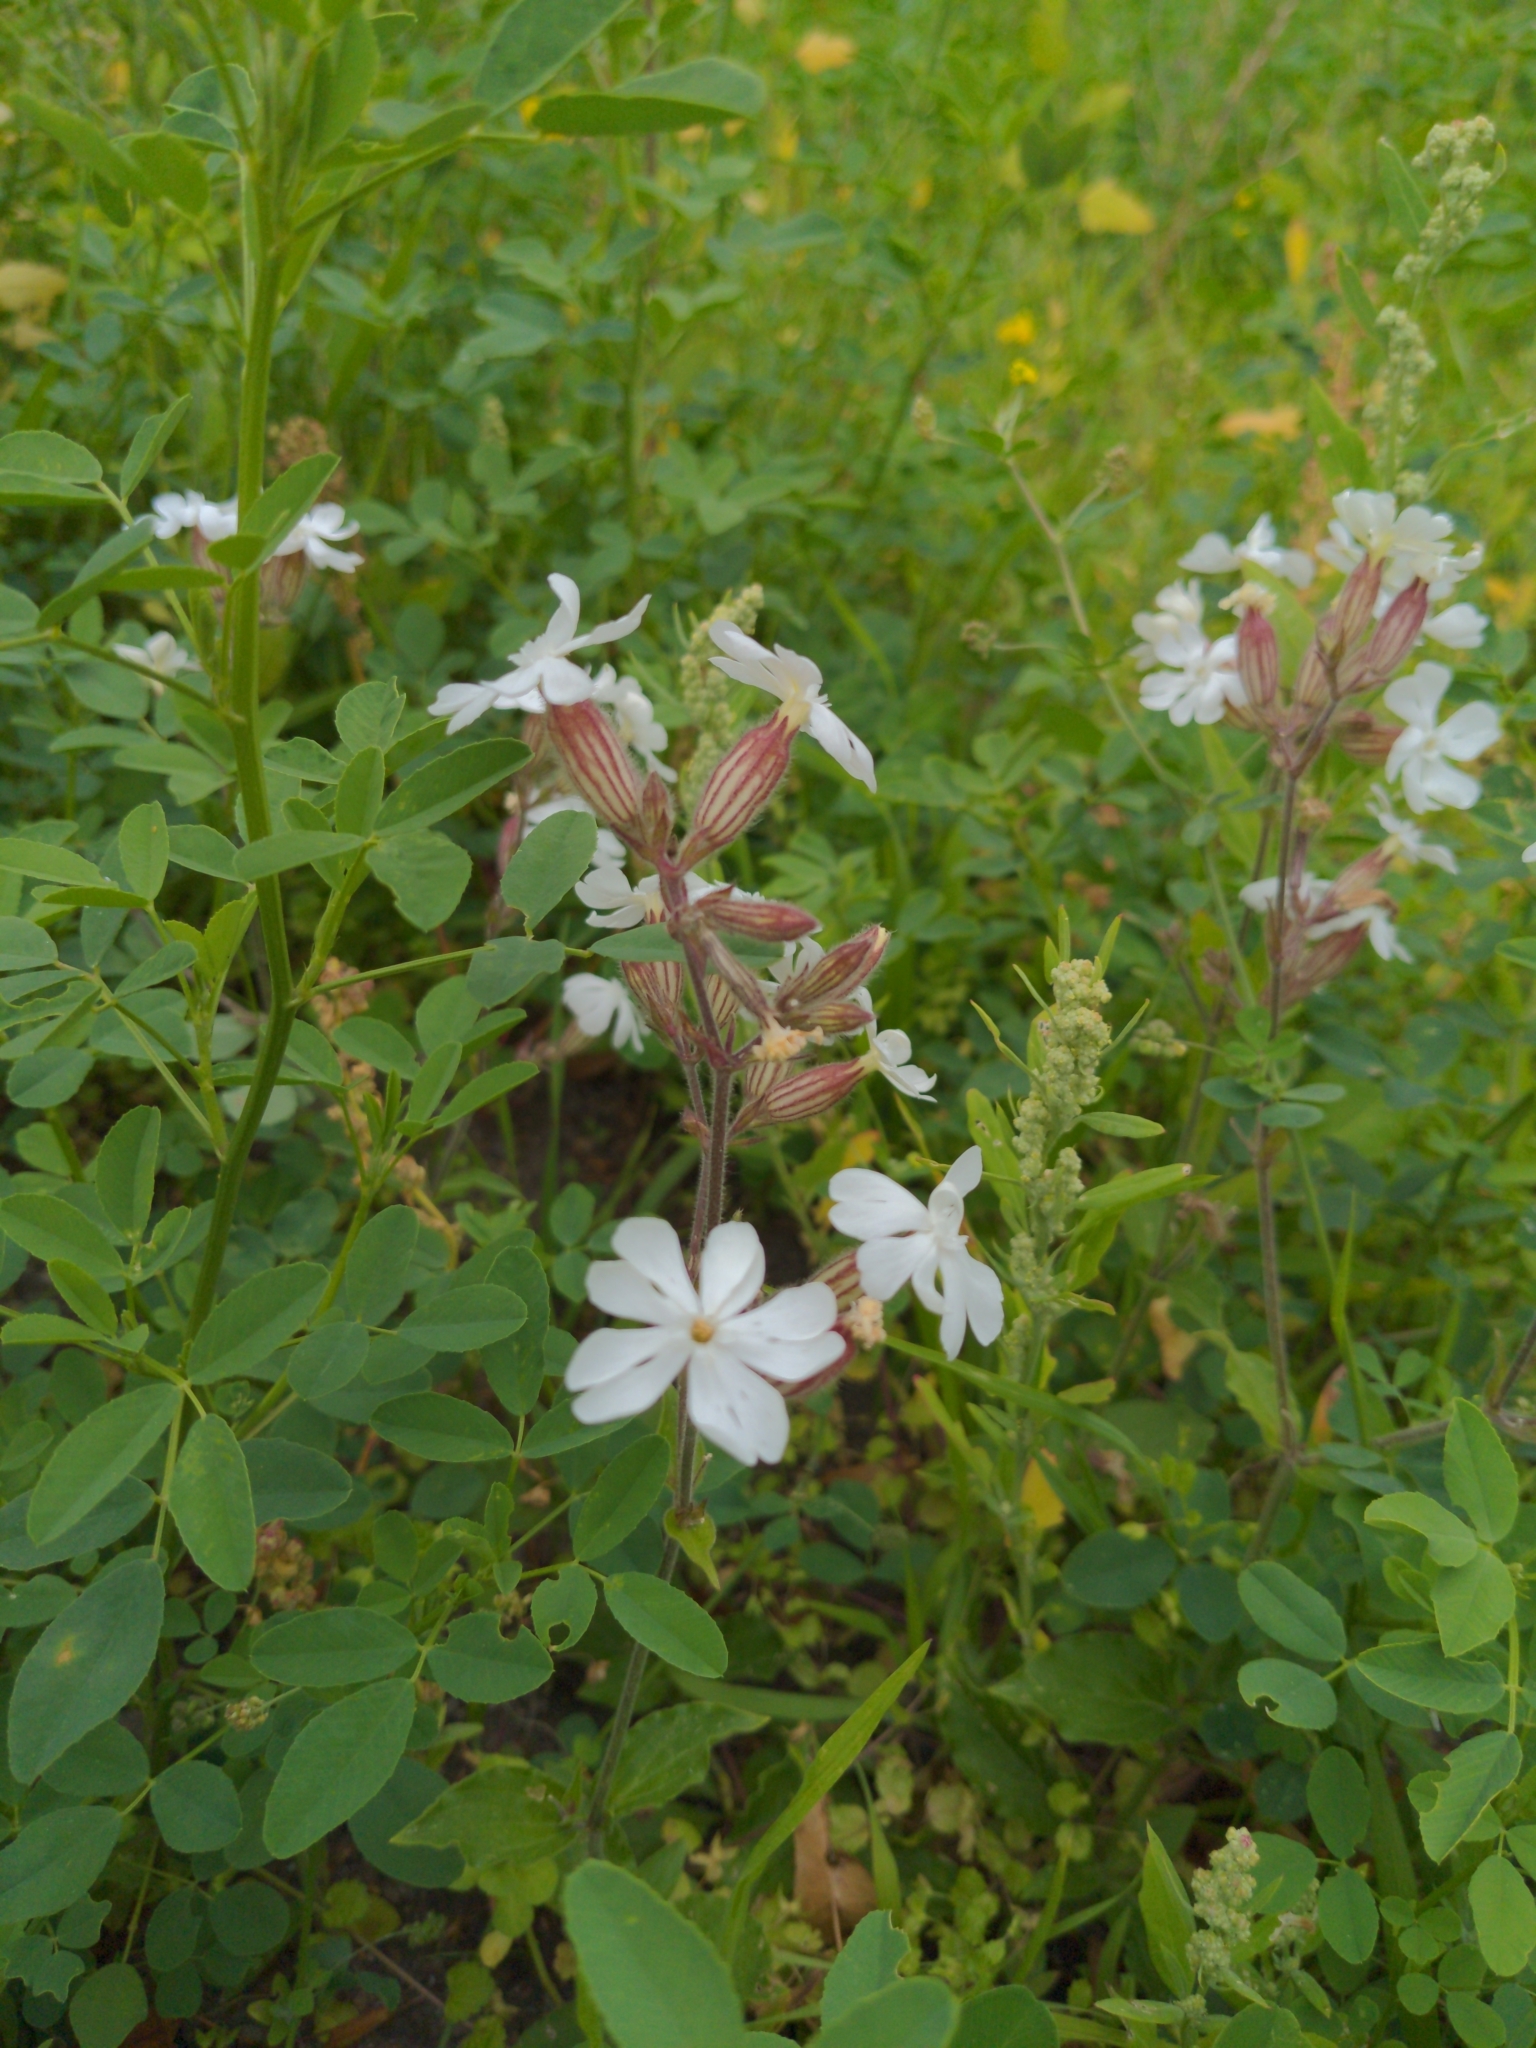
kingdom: Plantae
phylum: Tracheophyta
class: Magnoliopsida
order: Caryophyllales
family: Caryophyllaceae
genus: Silene
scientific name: Silene latifolia
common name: White campion
